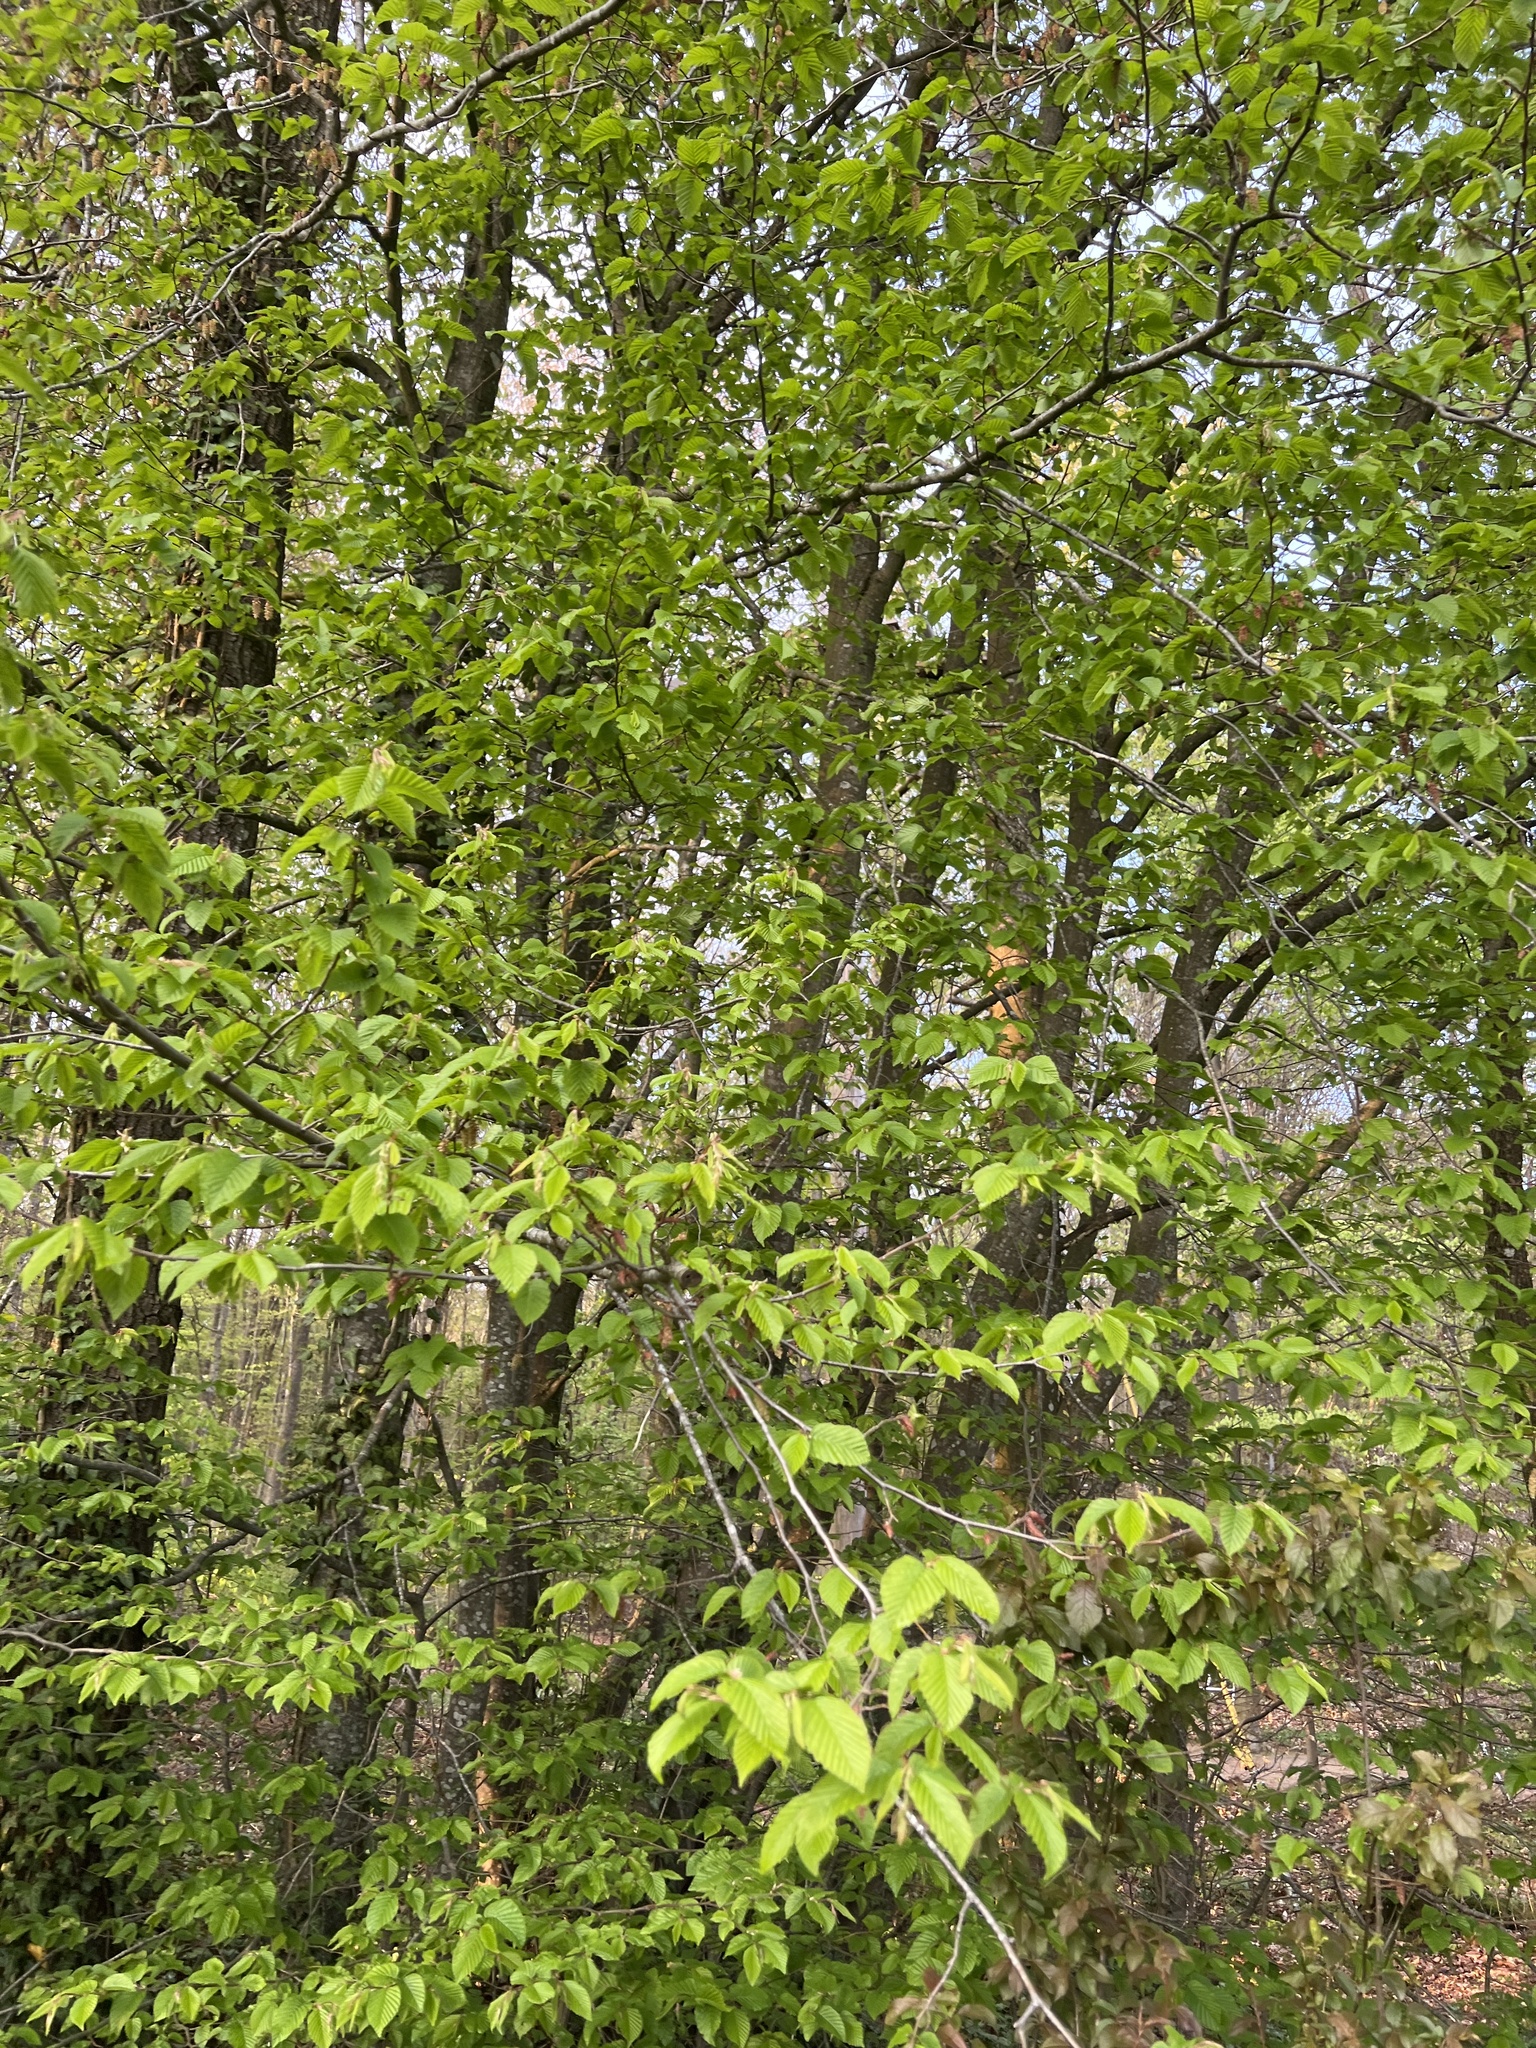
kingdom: Plantae
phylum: Tracheophyta
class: Magnoliopsida
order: Fagales
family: Betulaceae
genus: Carpinus
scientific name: Carpinus betulus
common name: Hornbeam
